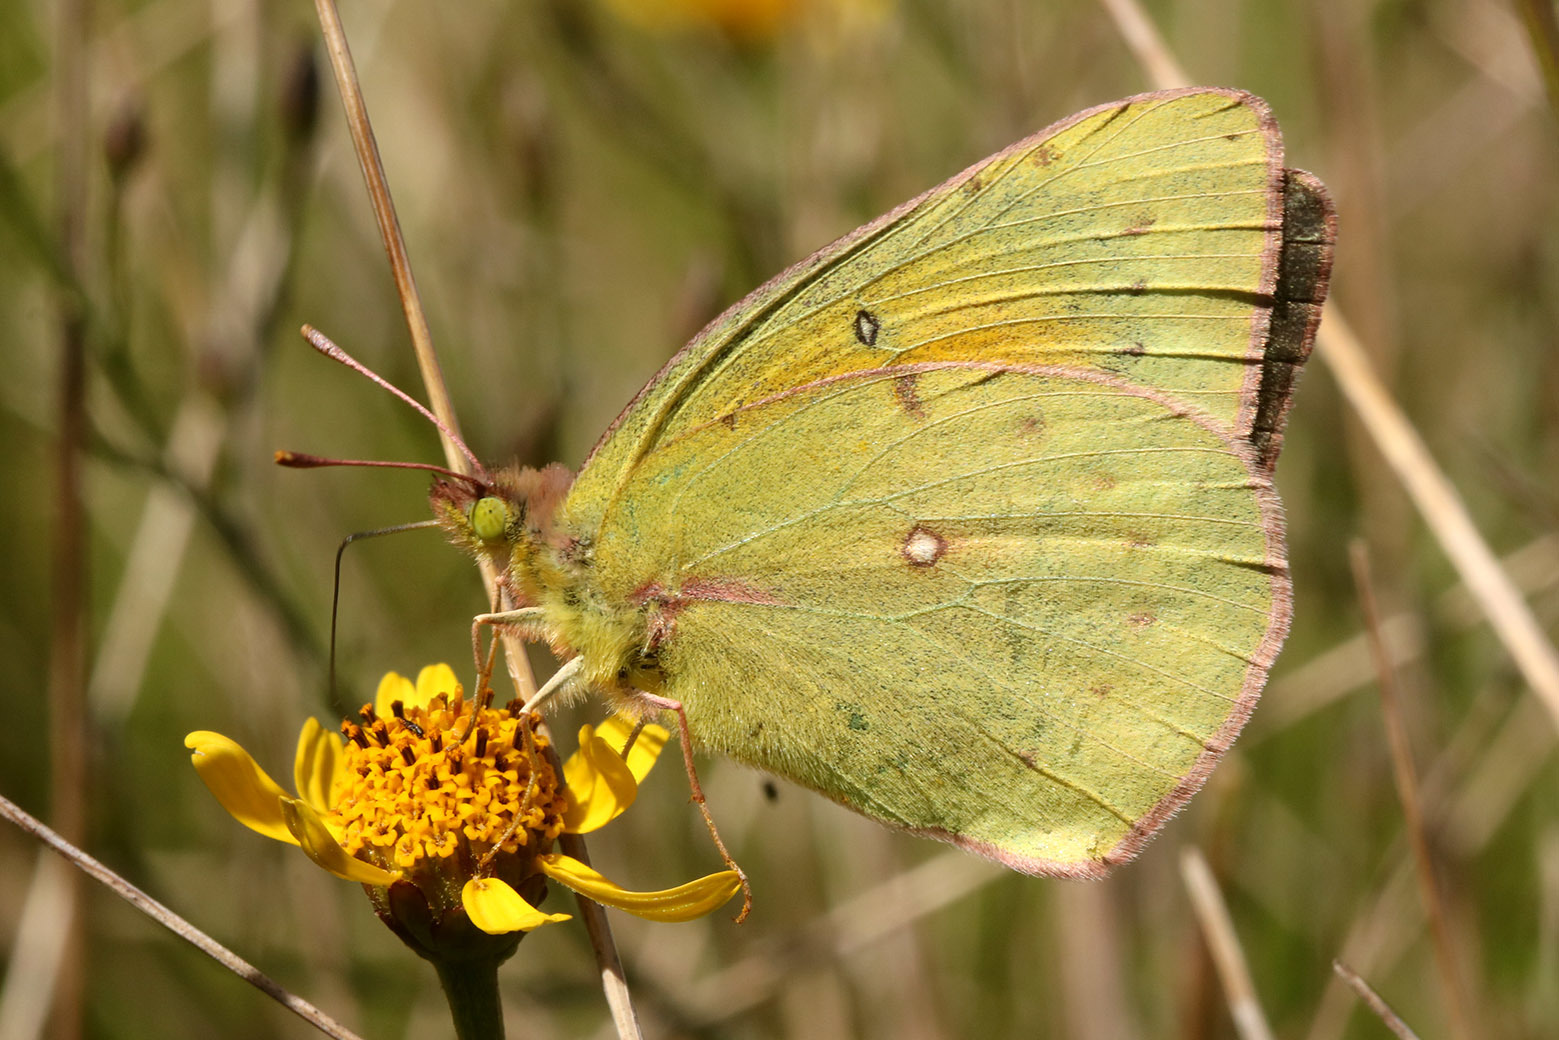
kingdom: Animalia
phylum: Arthropoda
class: Insecta
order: Lepidoptera
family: Pieridae
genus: Colias
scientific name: Colias lesbia
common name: Lesbia clouded yellow
